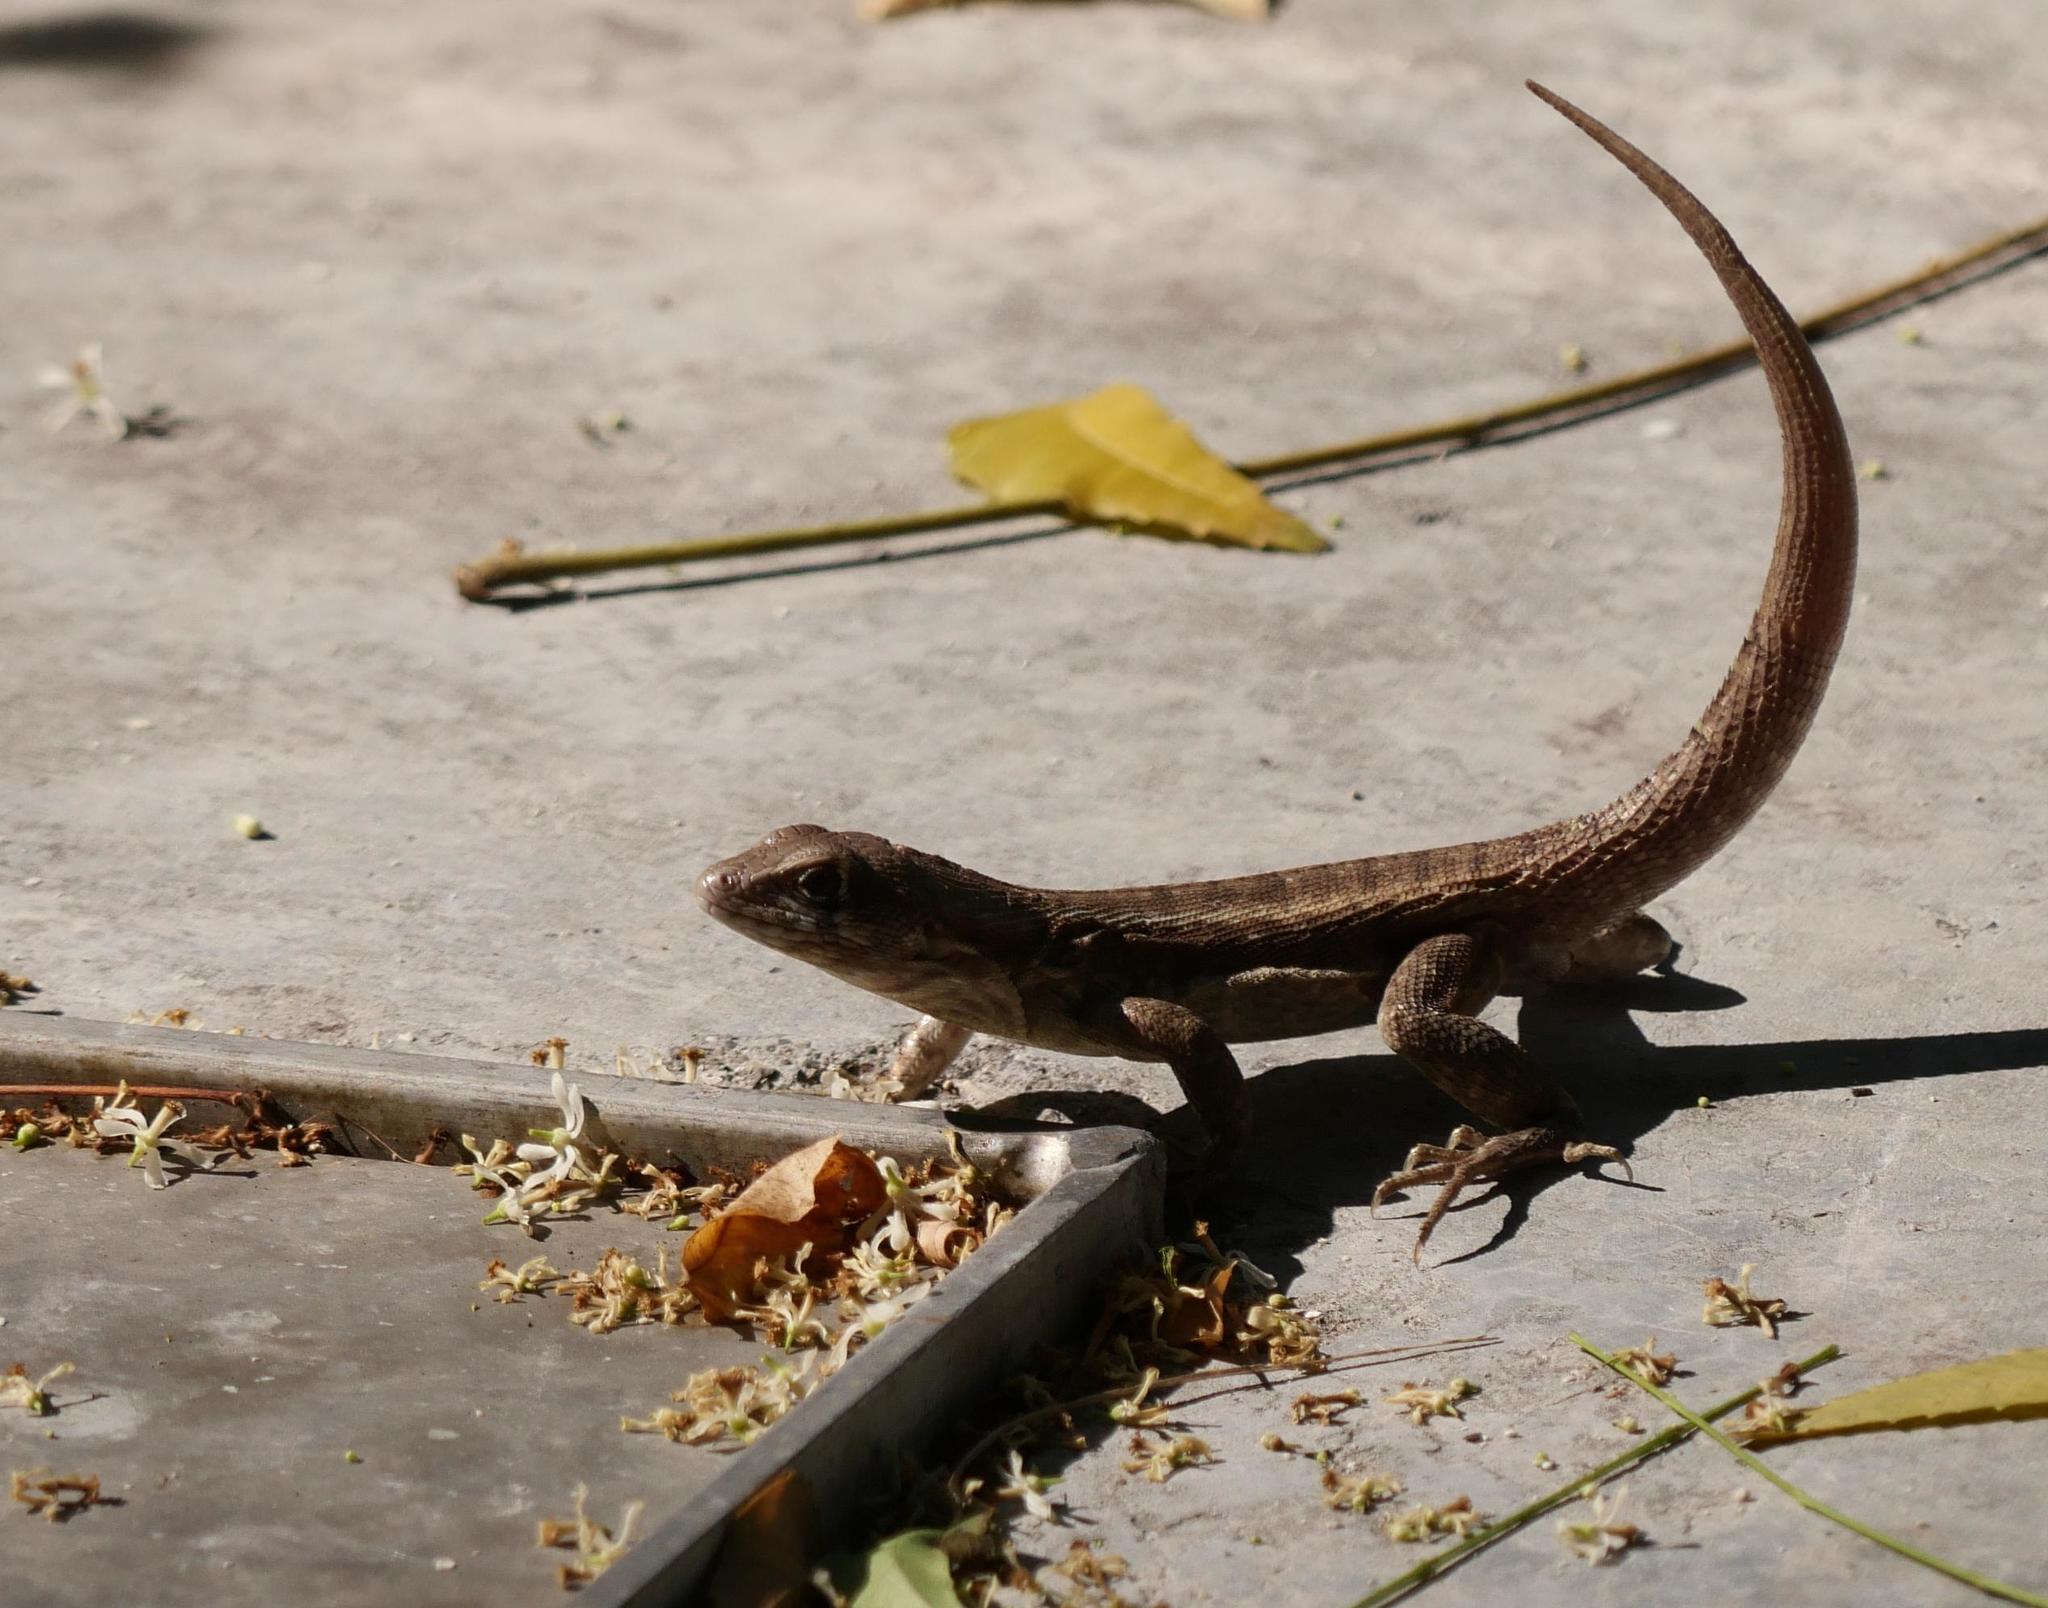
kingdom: Animalia
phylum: Chordata
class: Squamata
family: Leiocephalidae
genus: Leiocephalus
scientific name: Leiocephalus psammodromus
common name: Bastion cay curlytail lizard
